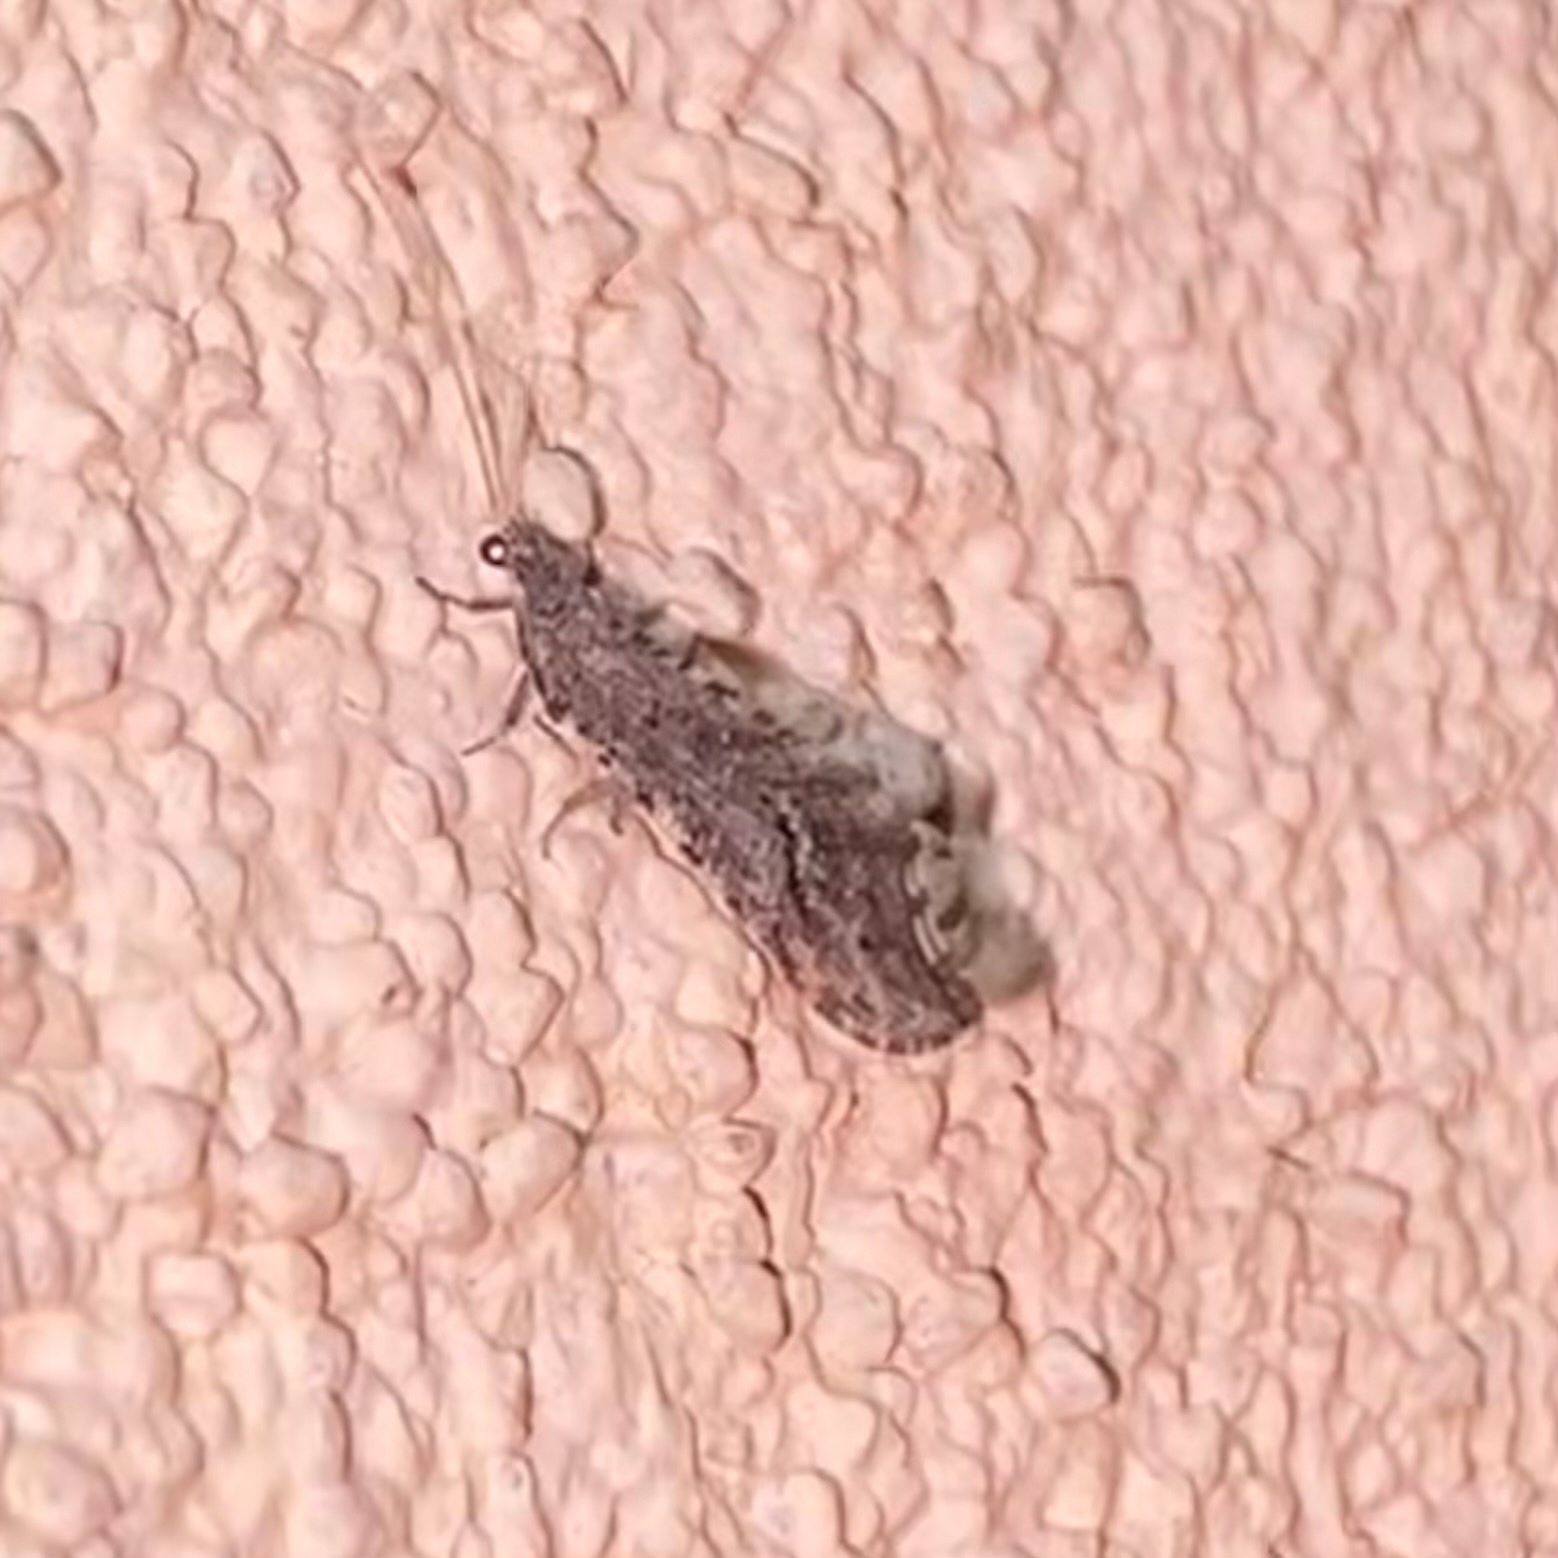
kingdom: Animalia
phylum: Arthropoda
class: Insecta
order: Neuroptera
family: Berothidae
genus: Lomamyia
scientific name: Lomamyia
